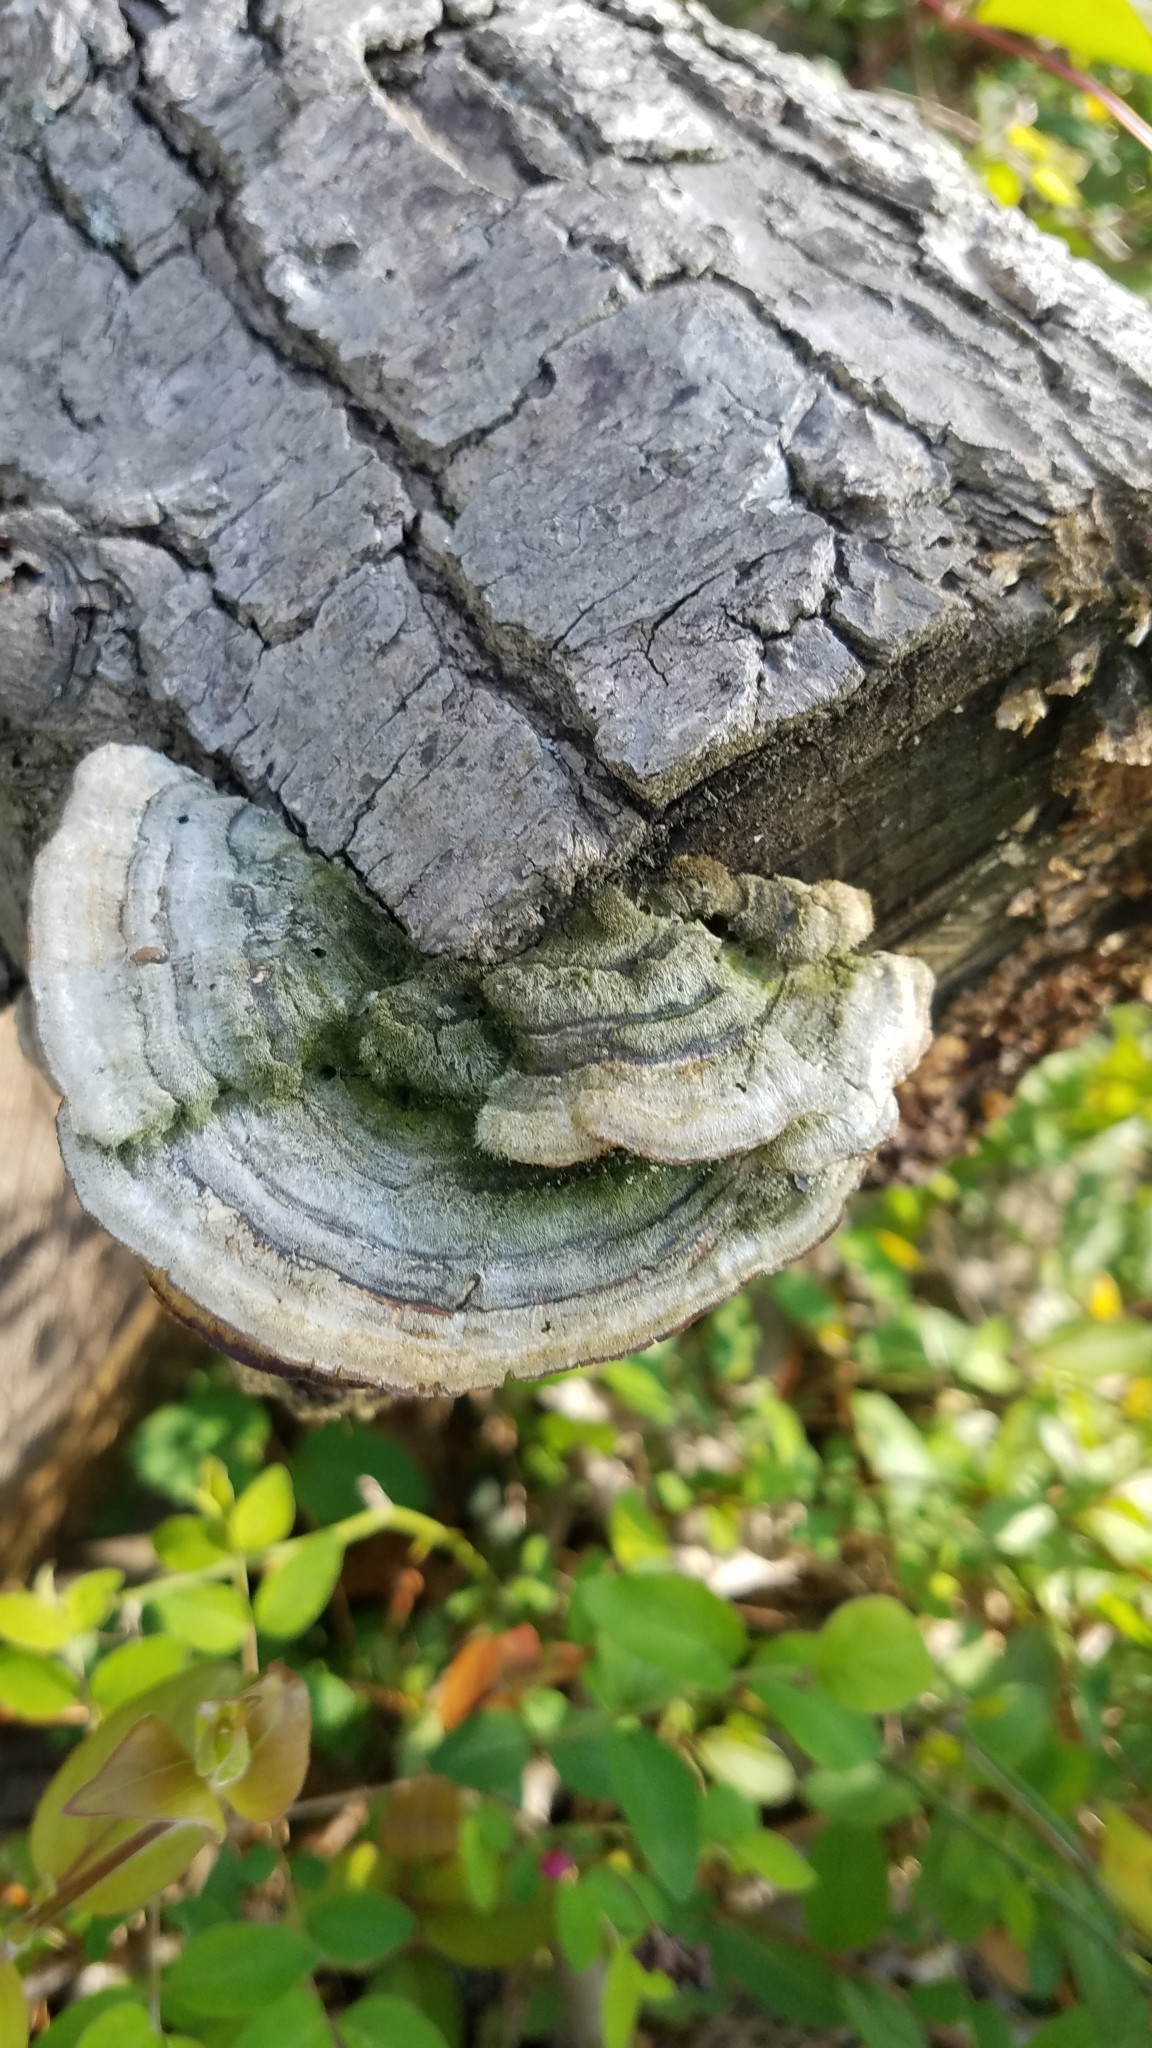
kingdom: Fungi
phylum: Basidiomycota
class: Agaricomycetes
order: Polyporales
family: Polyporaceae
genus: Lenzites
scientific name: Lenzites betulinus
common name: Birch mazegill
